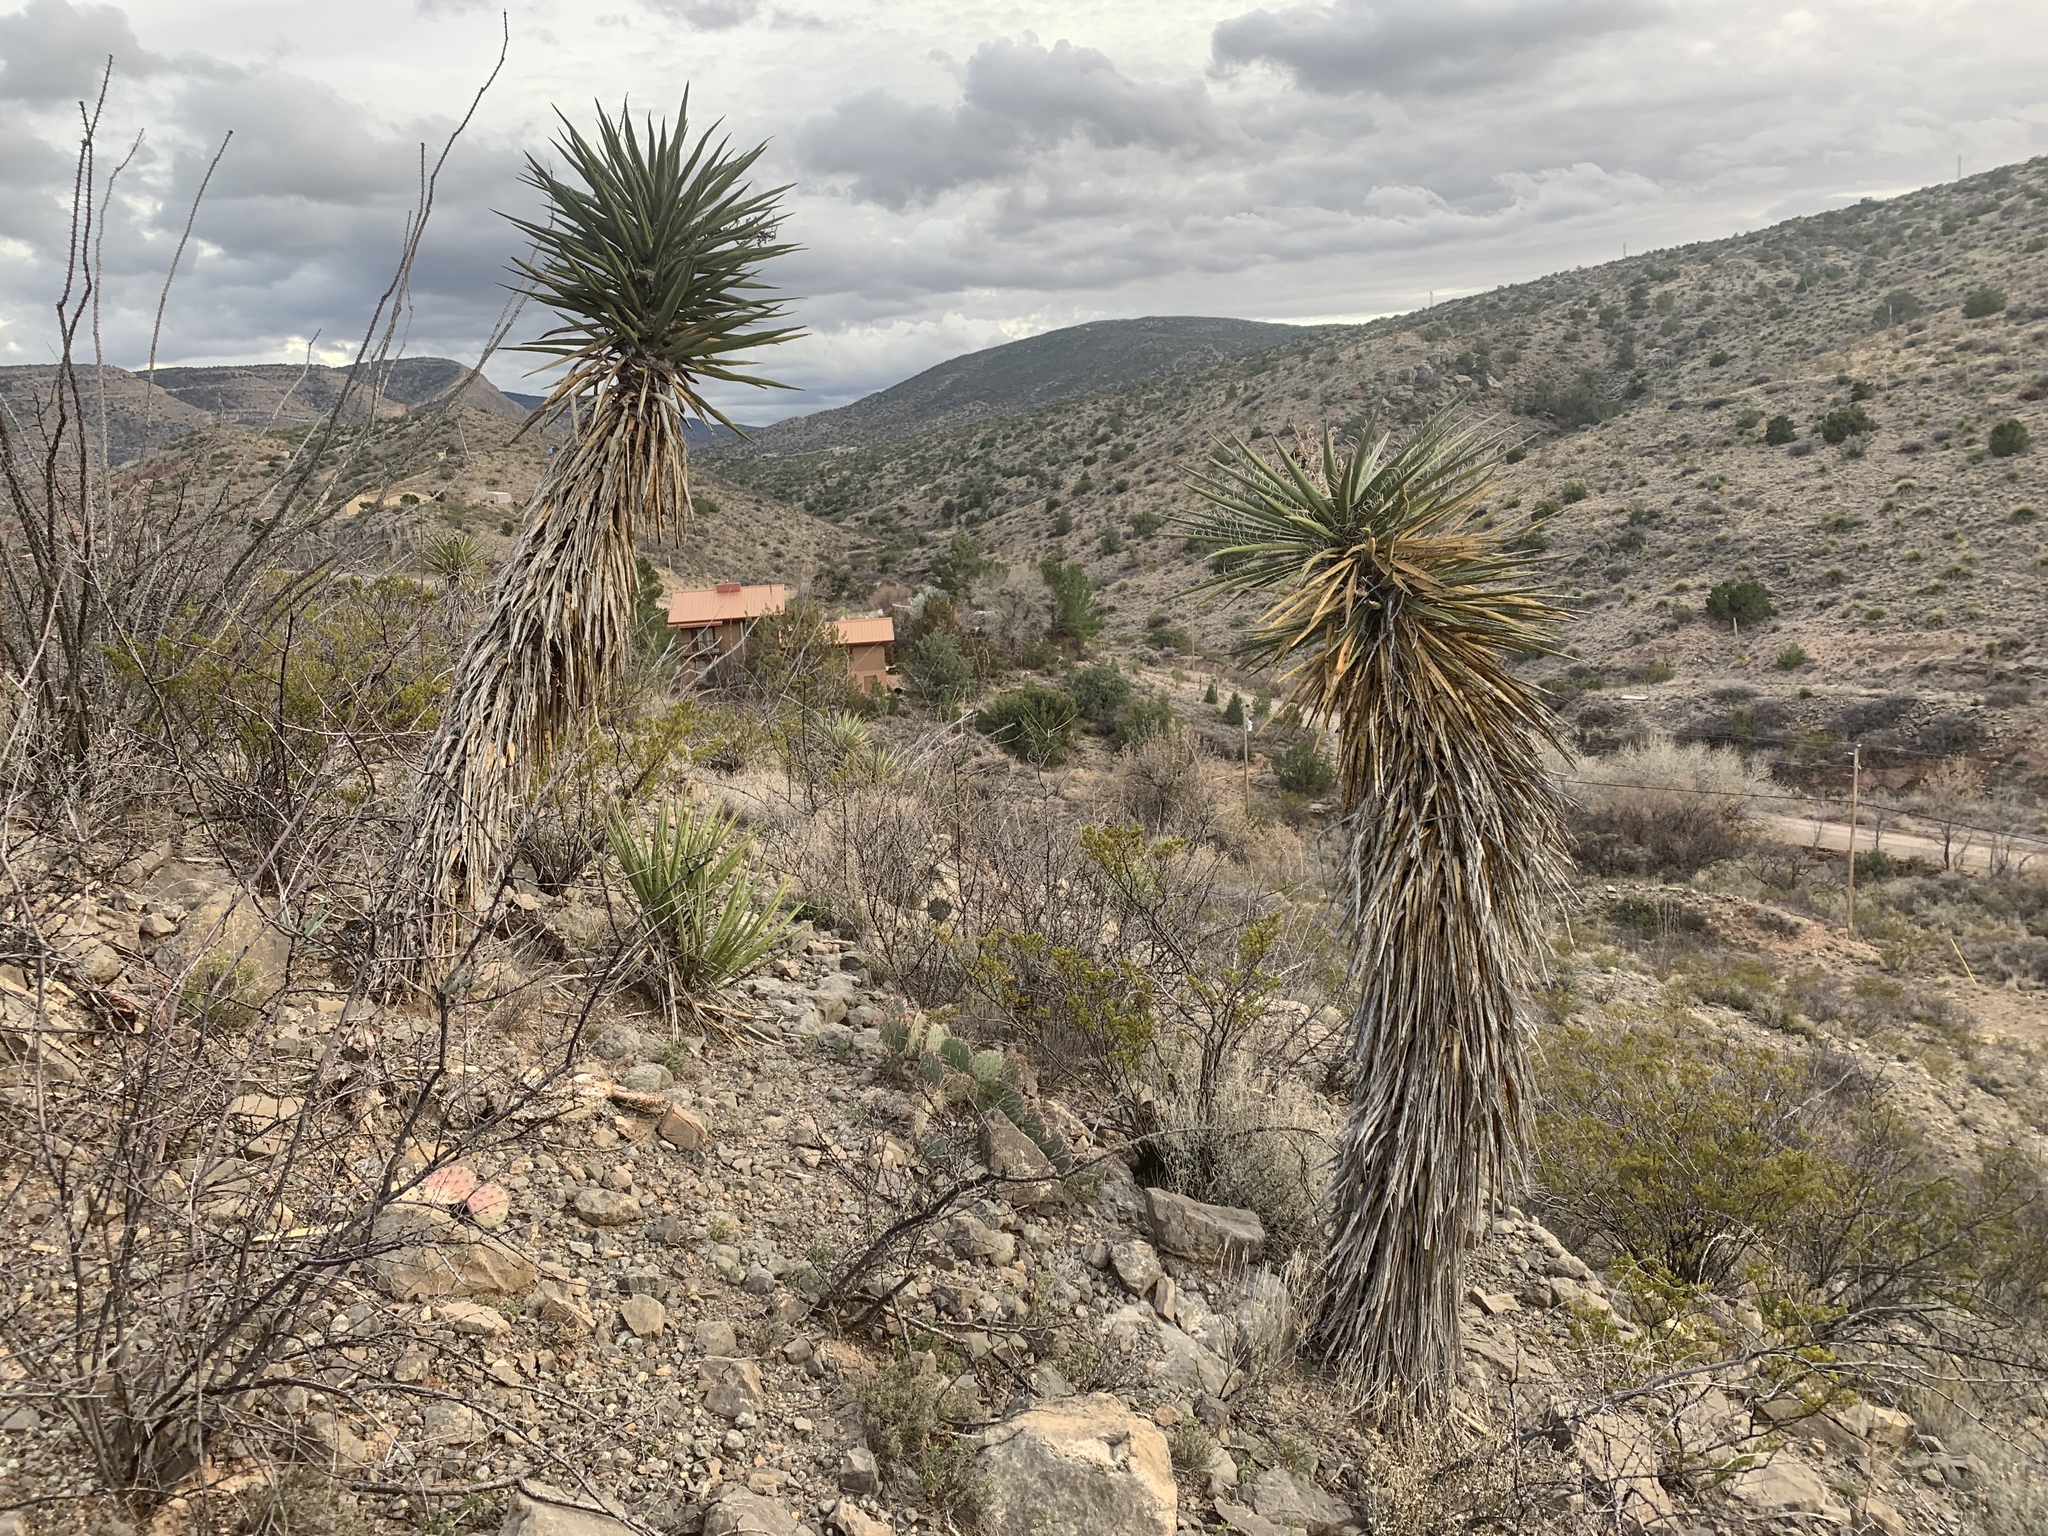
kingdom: Plantae
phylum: Tracheophyta
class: Liliopsida
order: Asparagales
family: Asparagaceae
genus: Yucca
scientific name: Yucca treculiana
